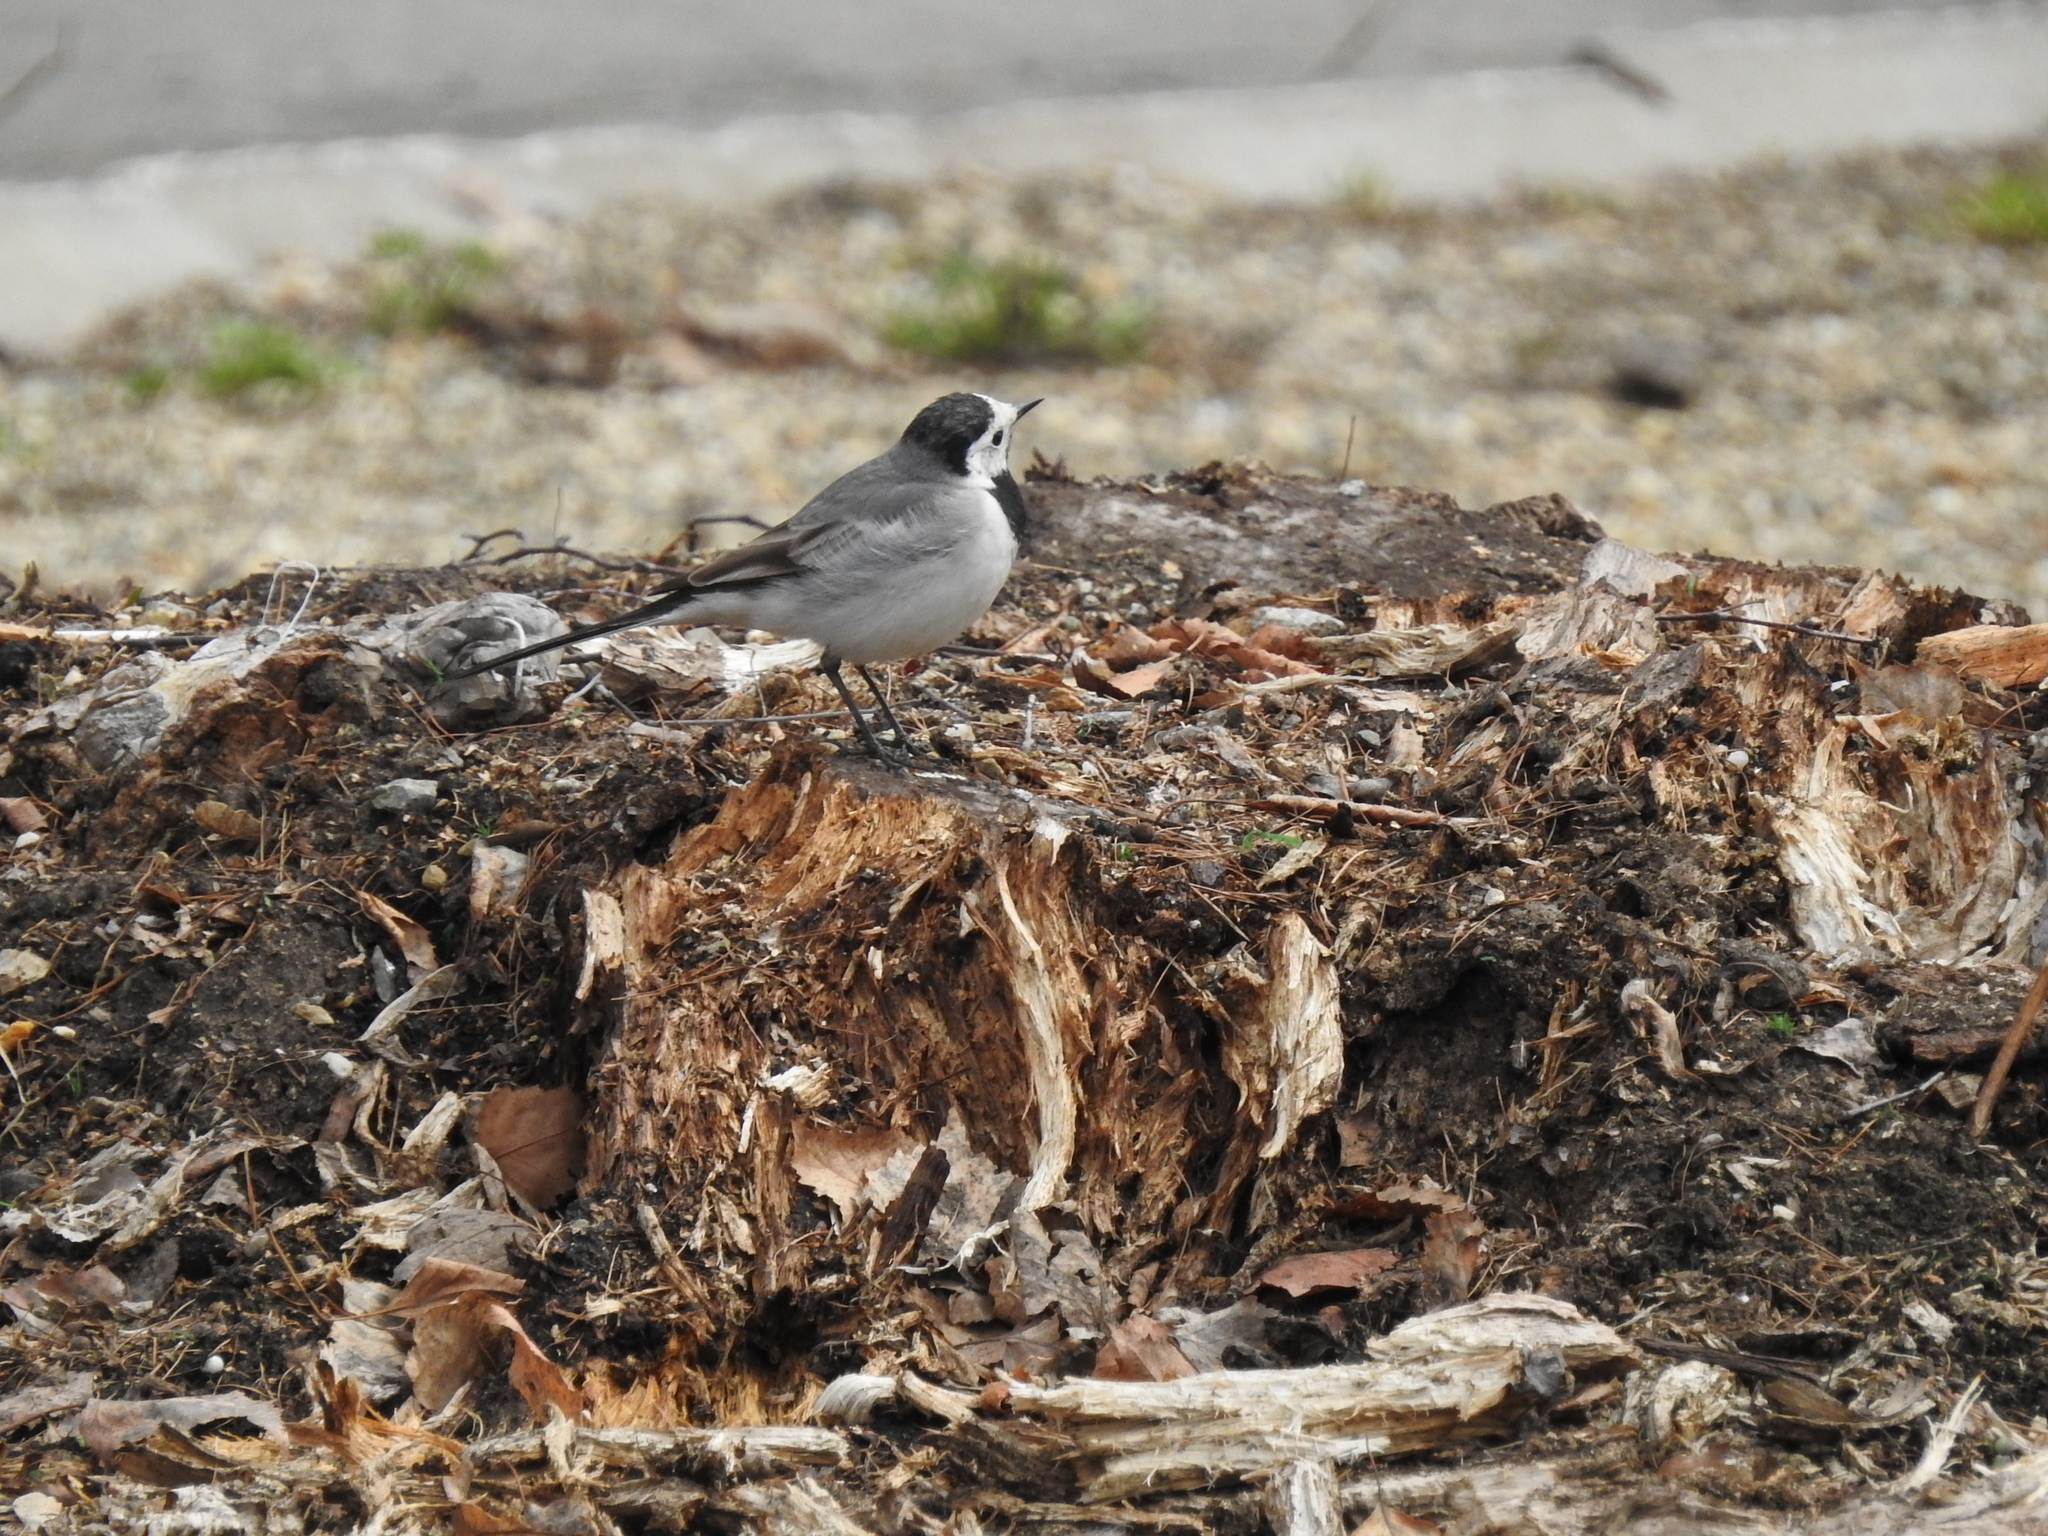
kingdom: Animalia
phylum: Chordata
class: Aves
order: Passeriformes
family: Motacillidae
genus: Motacilla
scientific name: Motacilla alba
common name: White wagtail
